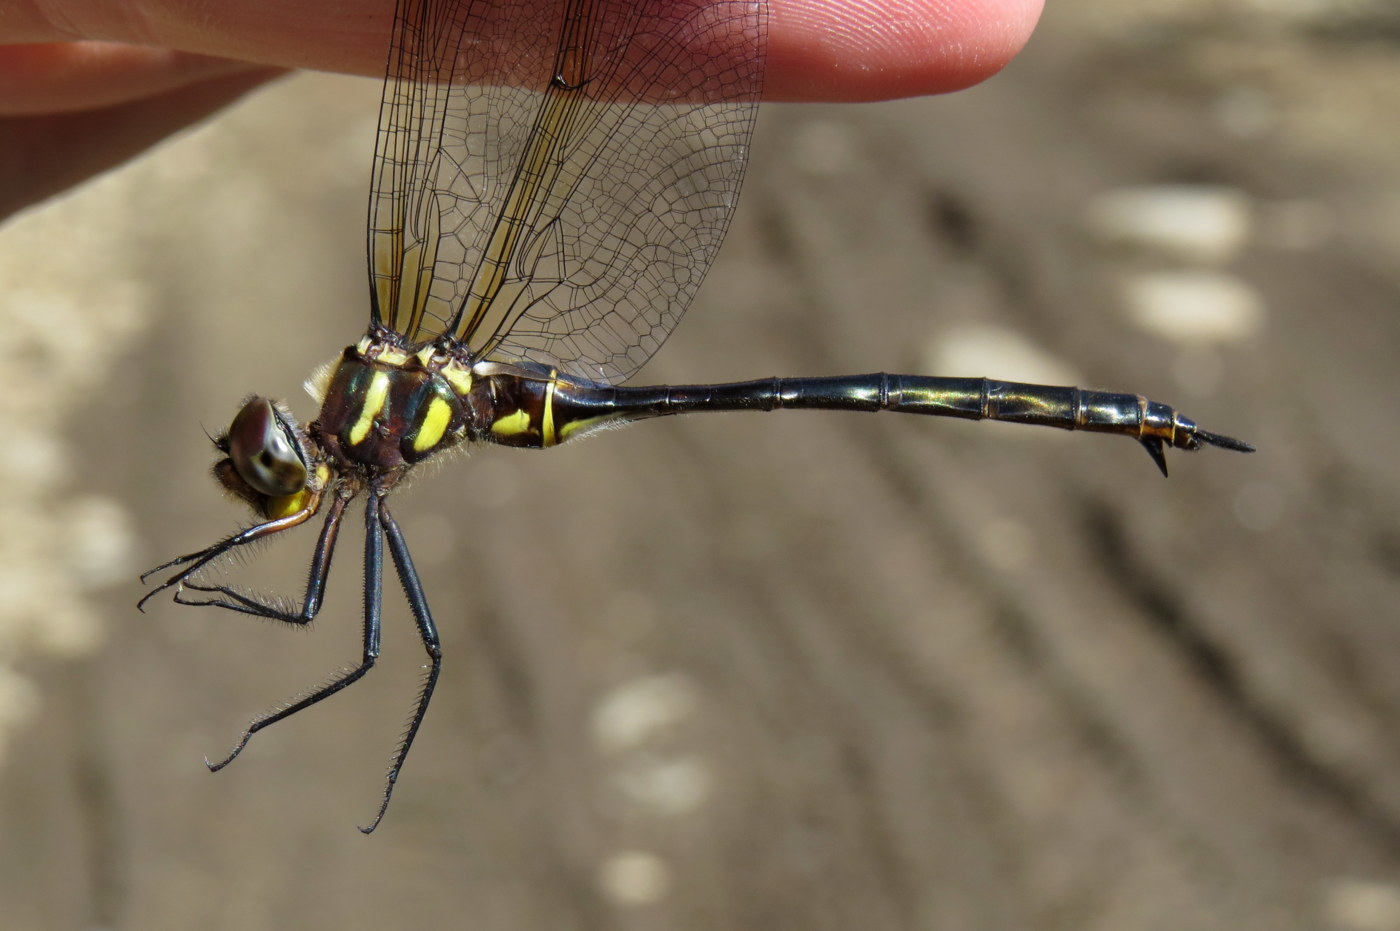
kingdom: Animalia
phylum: Arthropoda
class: Insecta
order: Odonata
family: Corduliidae
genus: Somatochlora
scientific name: Somatochlora tenebrosa
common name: Clamp-tipped emerald
